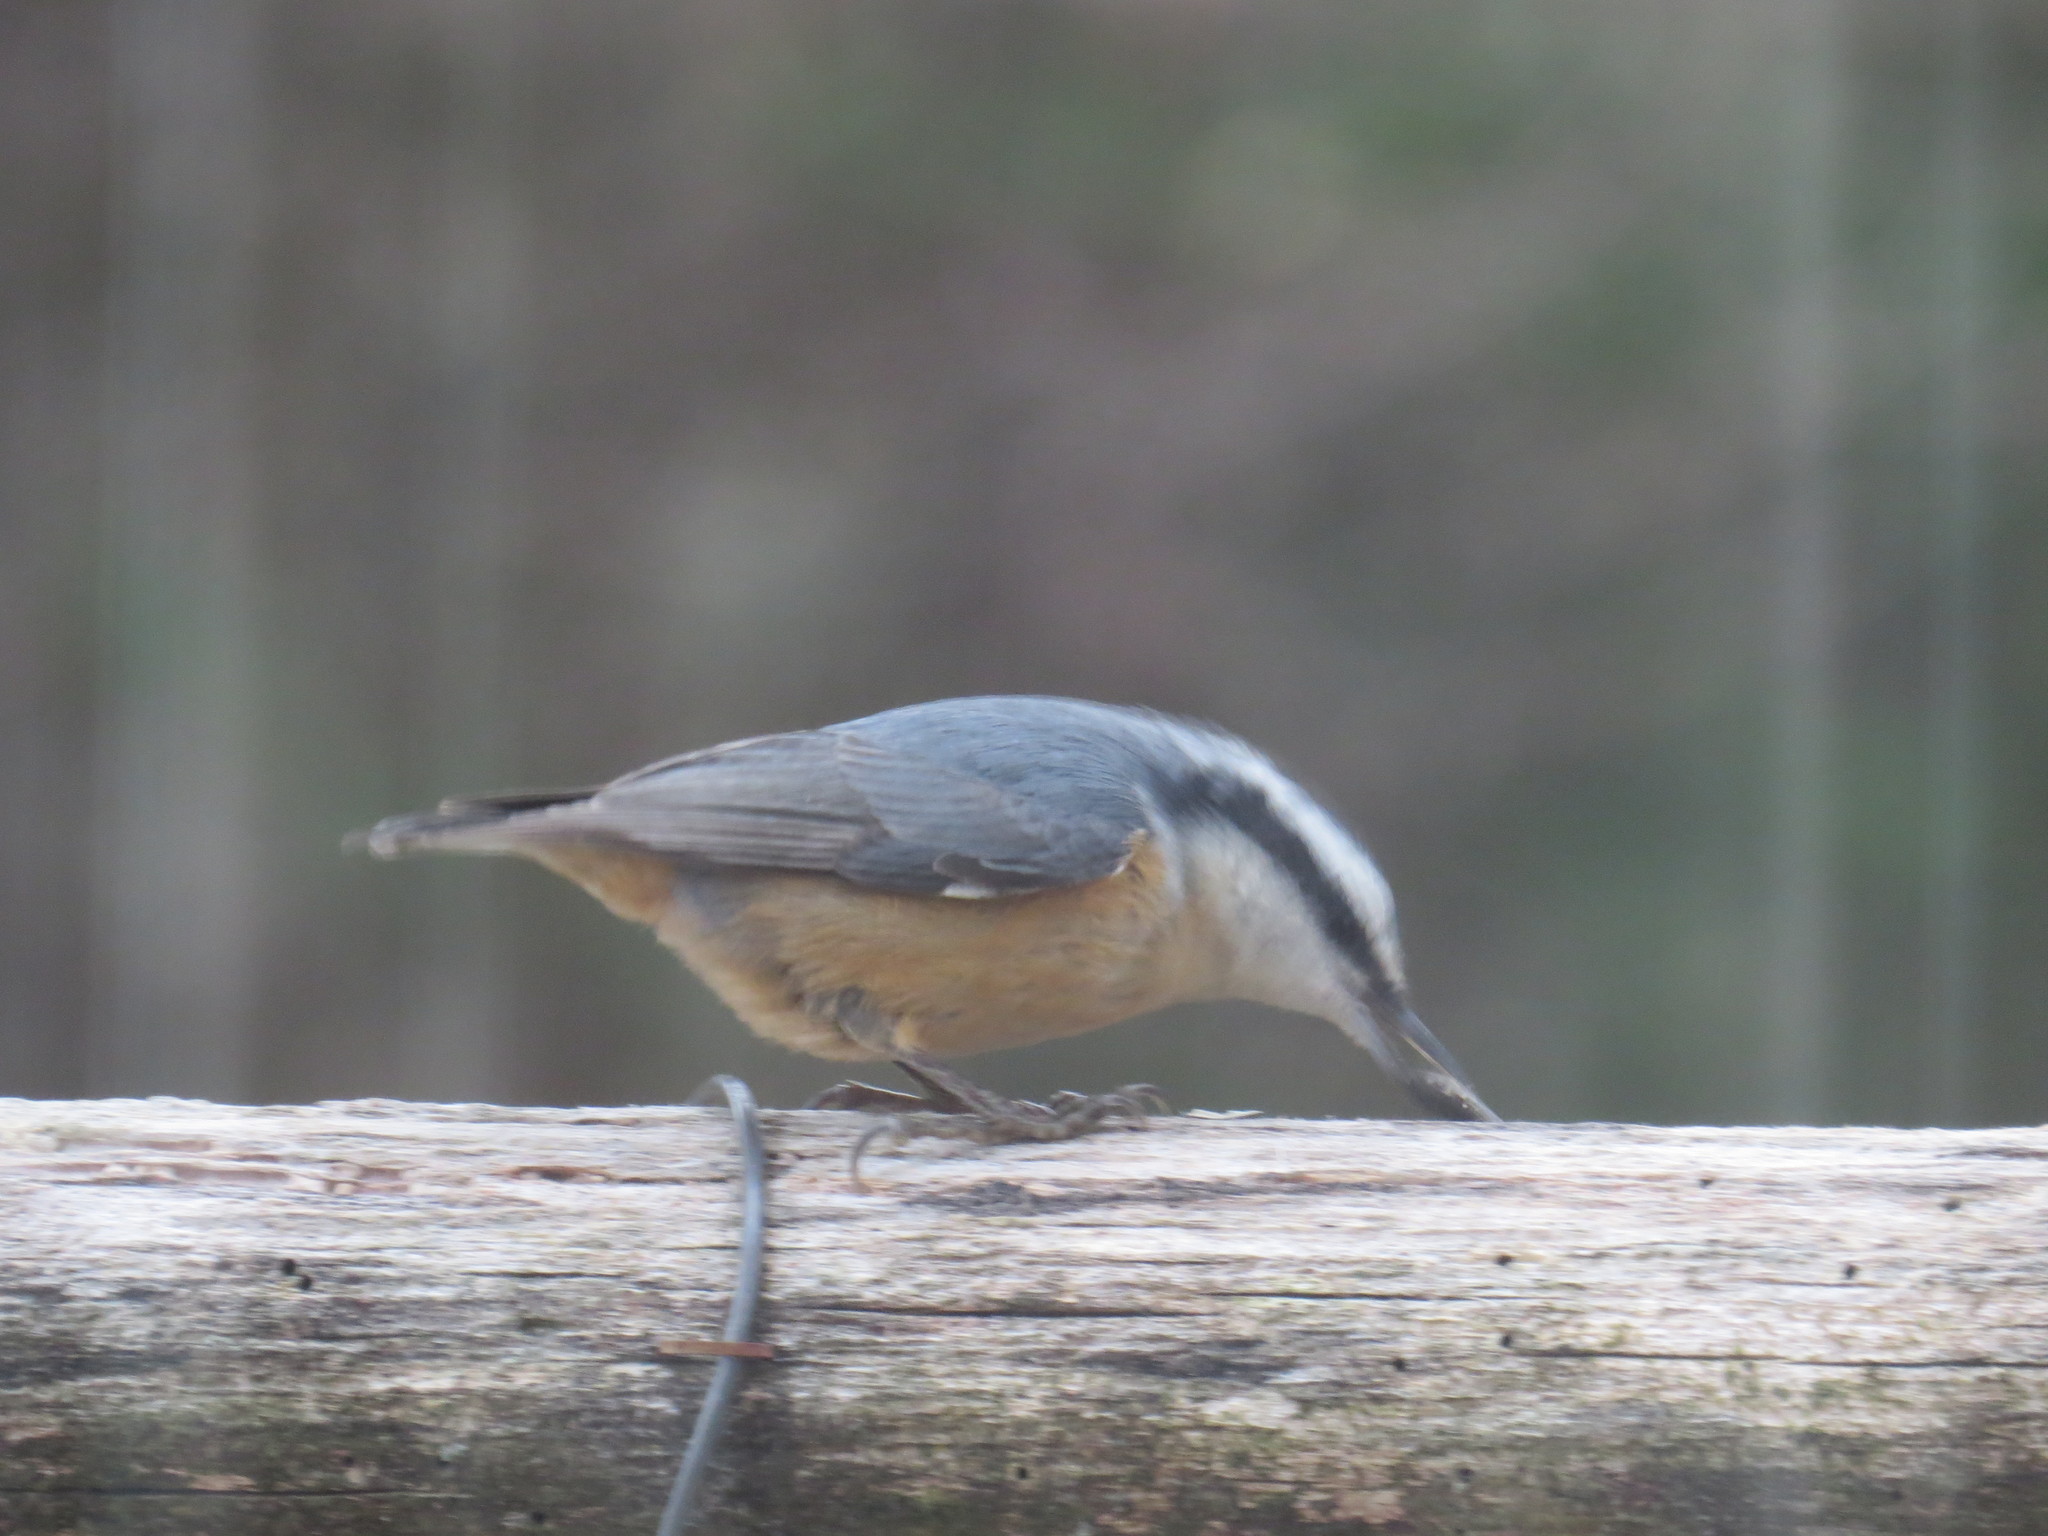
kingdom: Animalia
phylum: Chordata
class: Aves
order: Passeriformes
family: Sittidae
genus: Sitta
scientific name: Sitta canadensis
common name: Red-breasted nuthatch
